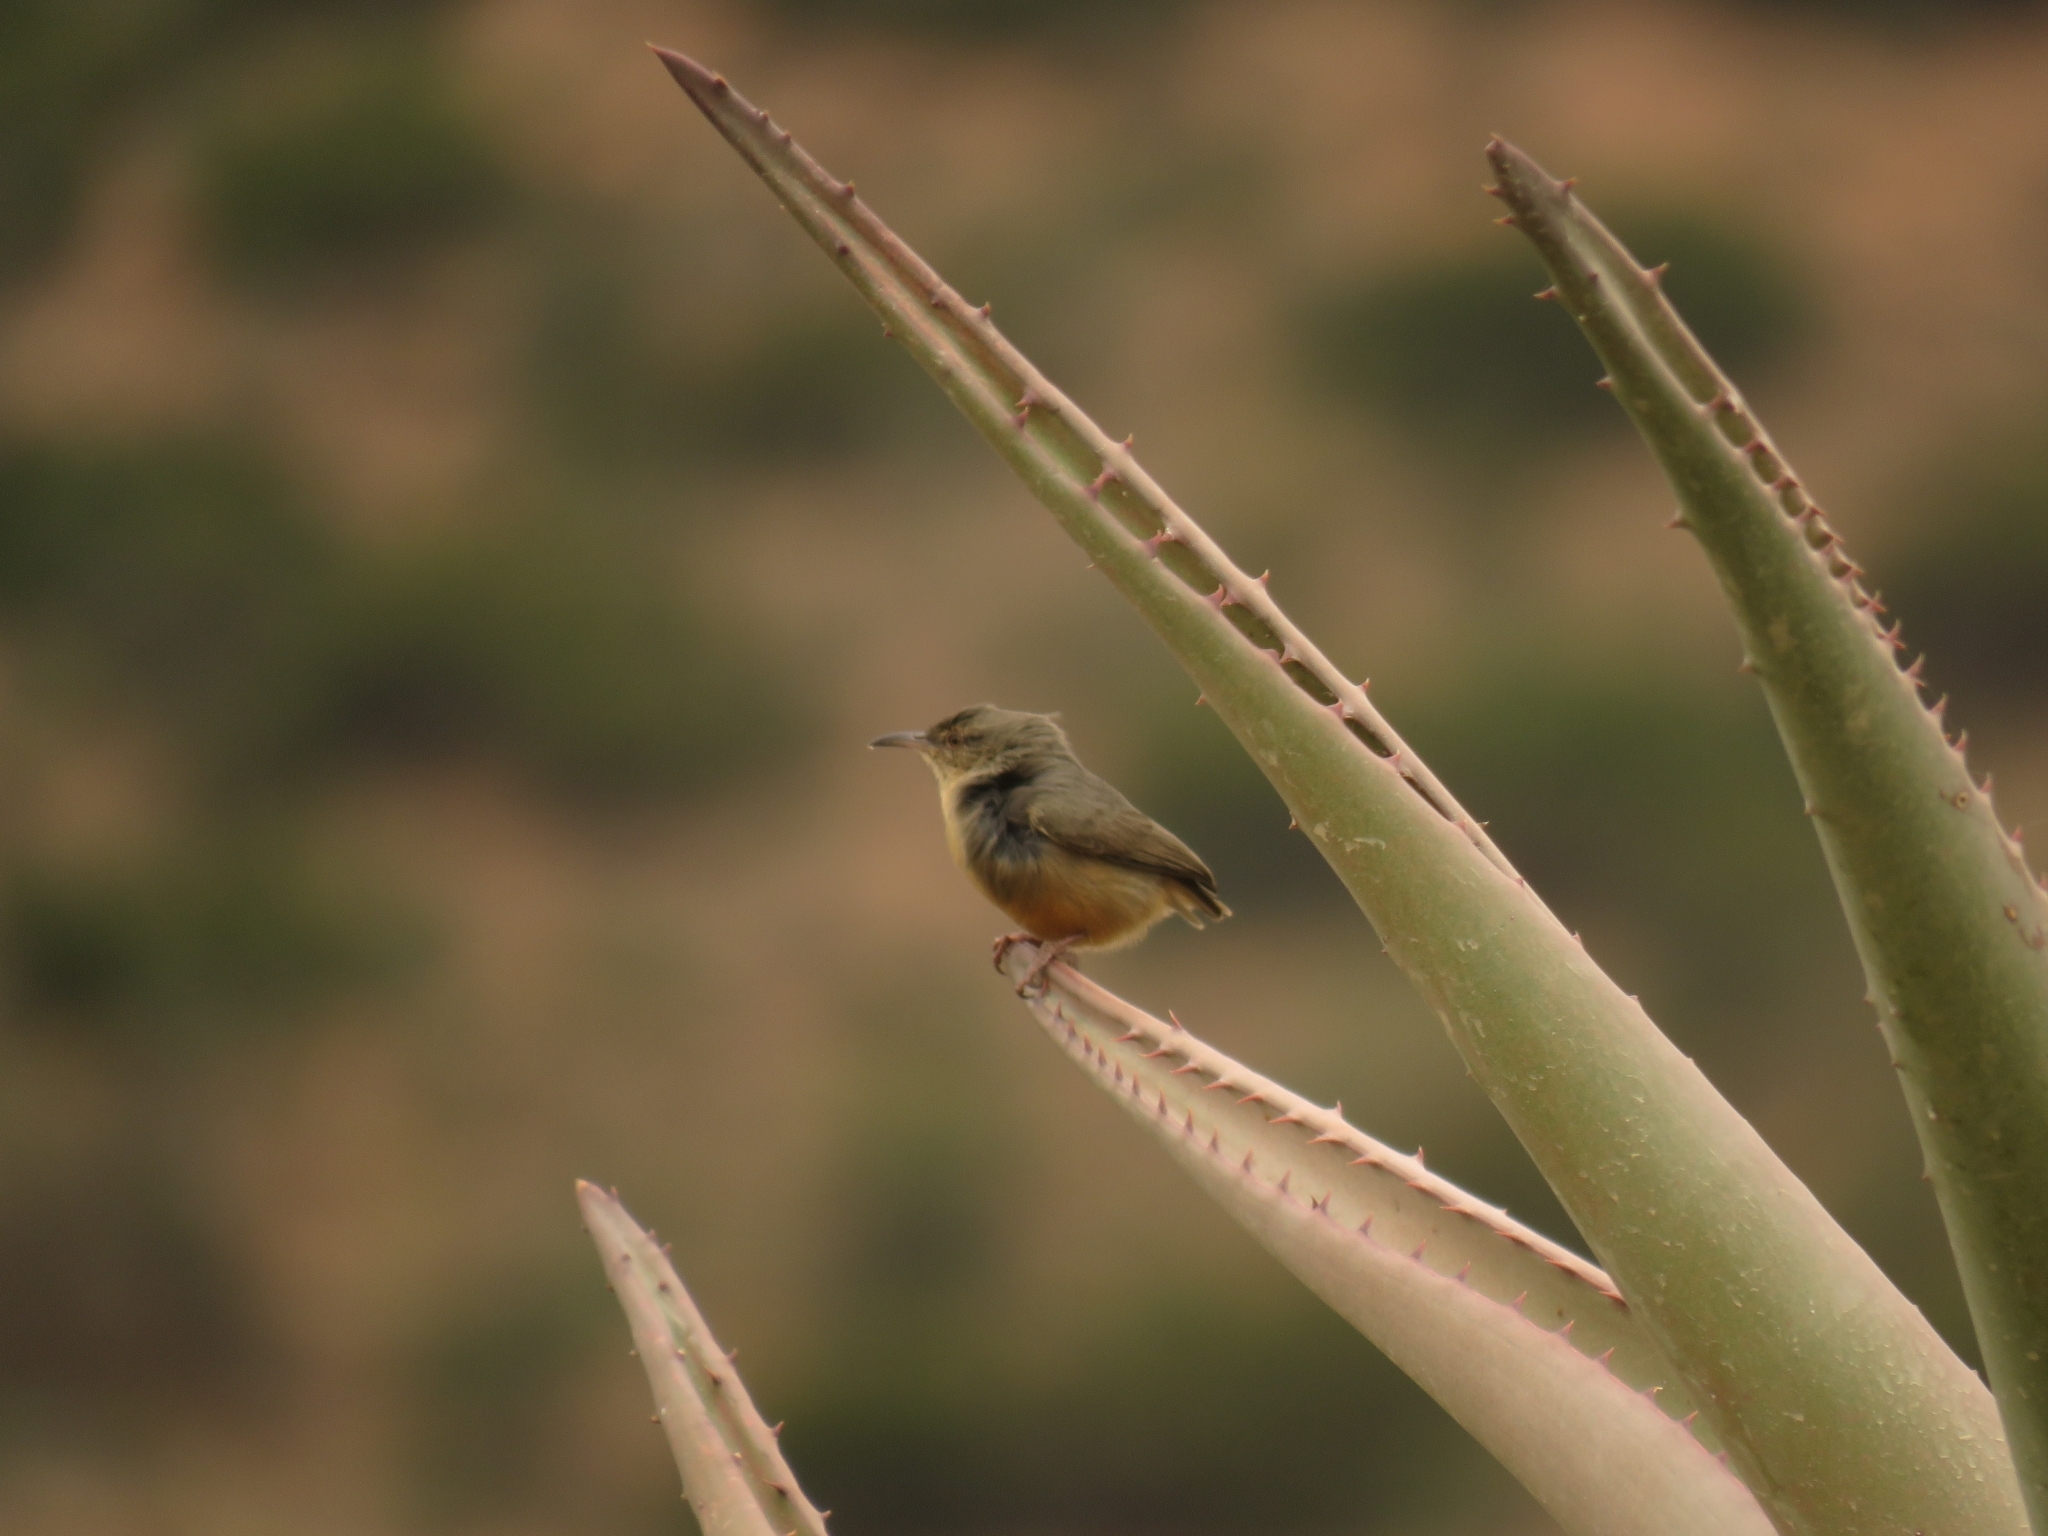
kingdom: Animalia
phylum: Chordata
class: Aves
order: Passeriformes
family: Macrosphenidae
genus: Sylvietta
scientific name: Sylvietta rufescens
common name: Long-billed crombec
